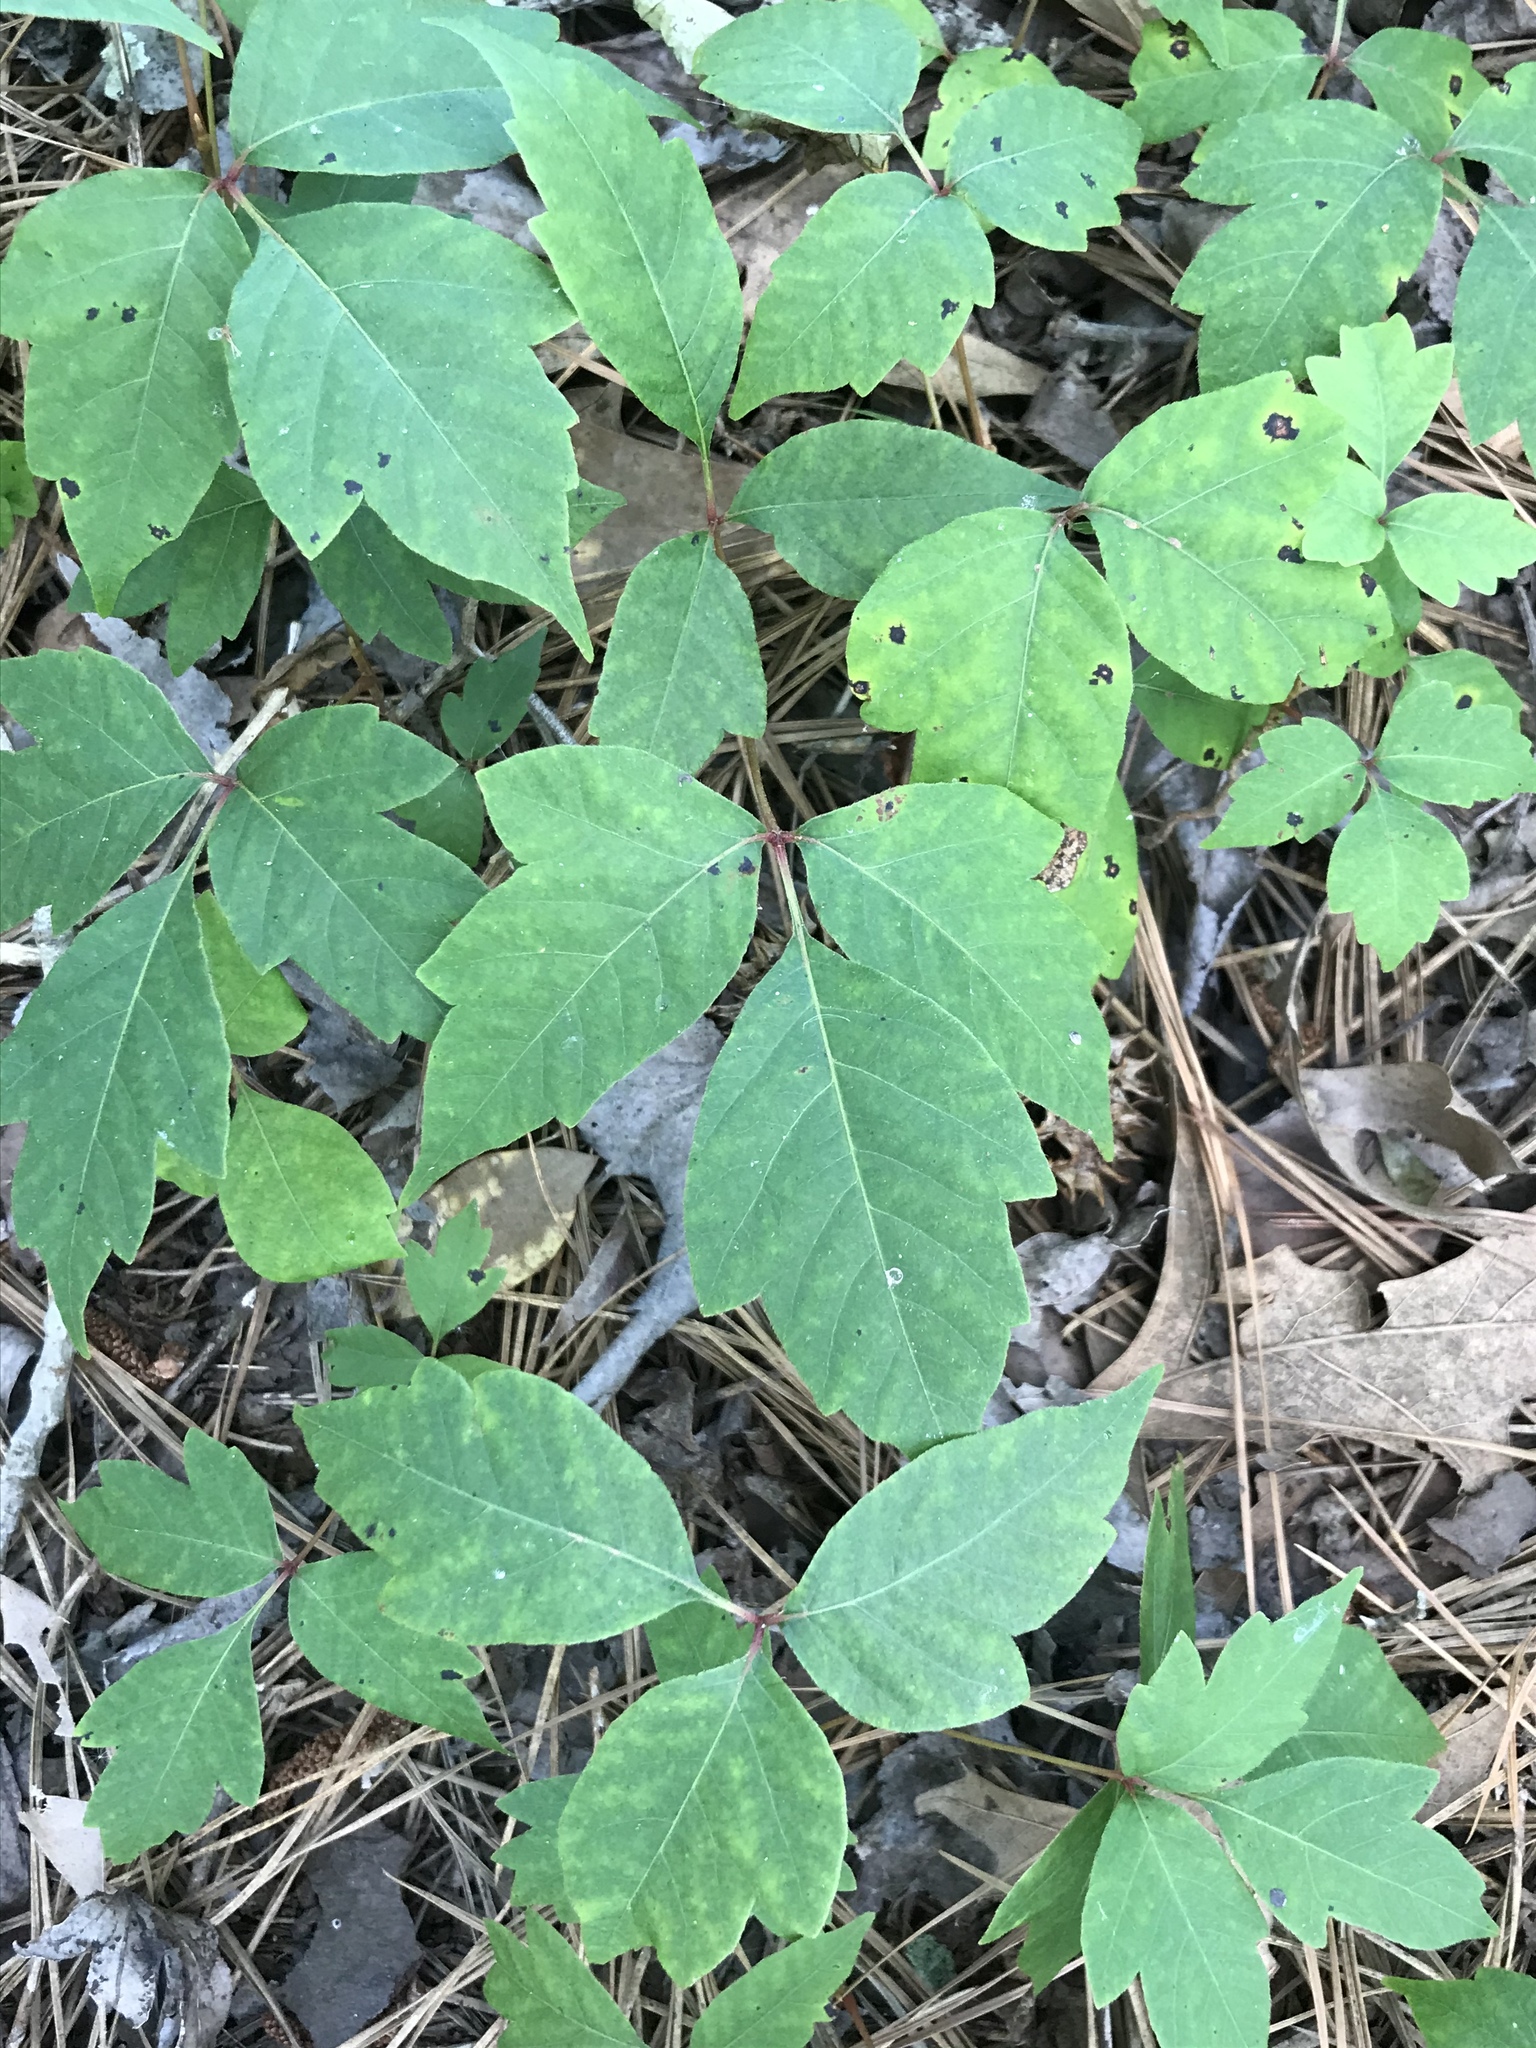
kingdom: Plantae
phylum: Tracheophyta
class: Magnoliopsida
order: Sapindales
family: Anacardiaceae
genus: Toxicodendron
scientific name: Toxicodendron radicans
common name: Poison ivy
